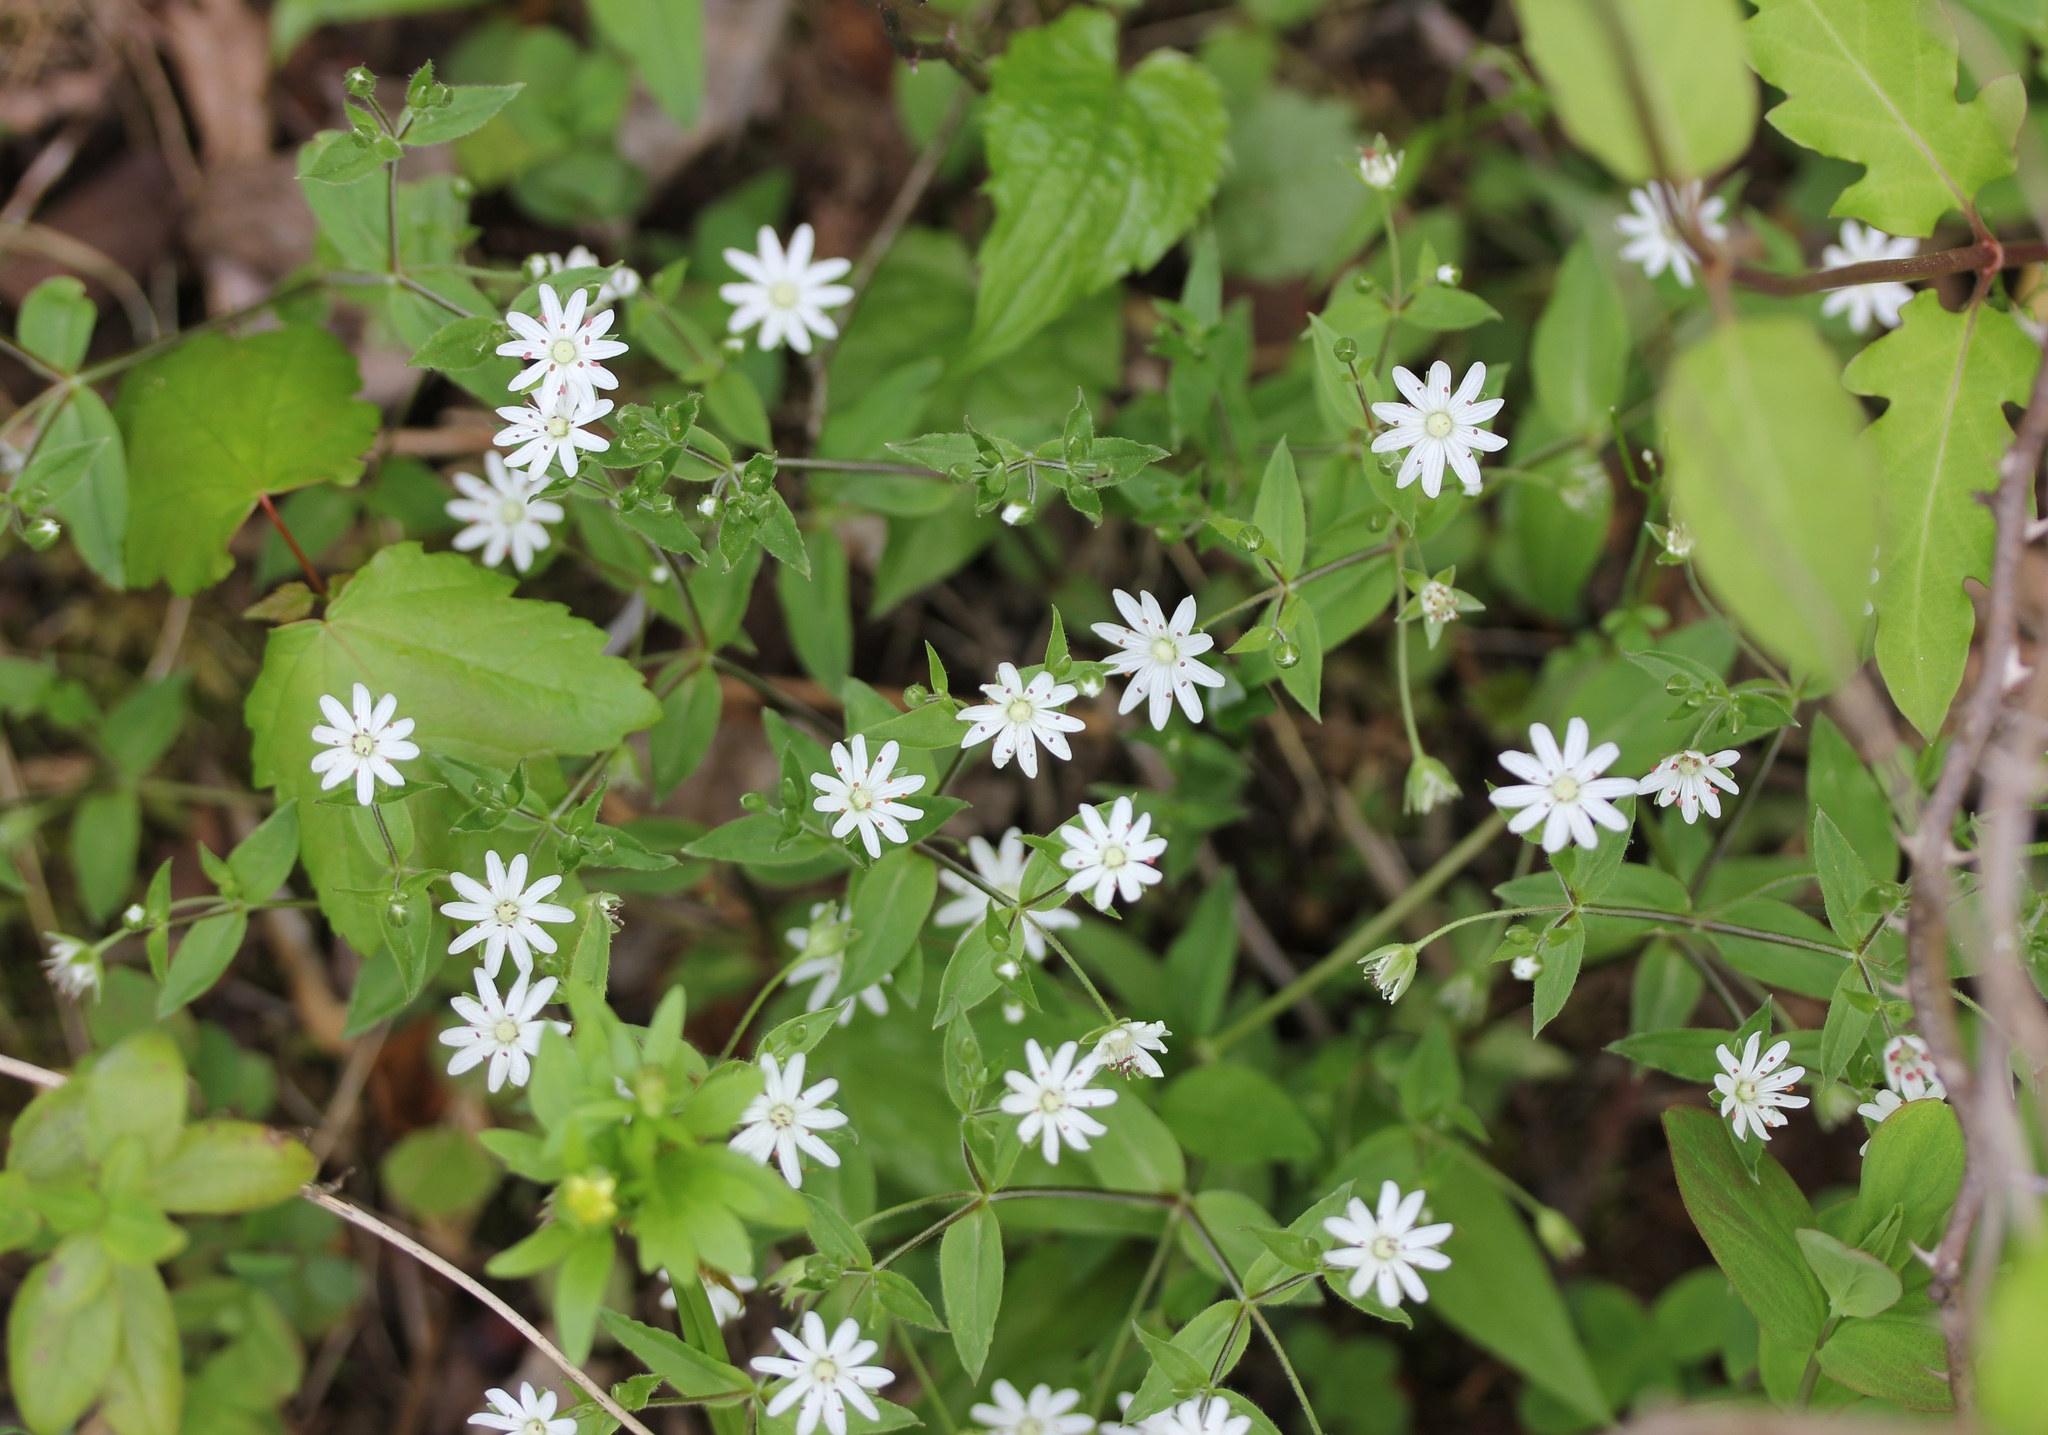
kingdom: Plantae
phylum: Tracheophyta
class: Magnoliopsida
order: Caryophyllales
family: Caryophyllaceae
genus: Stellaria
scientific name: Stellaria pubera
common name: Star chickweed
